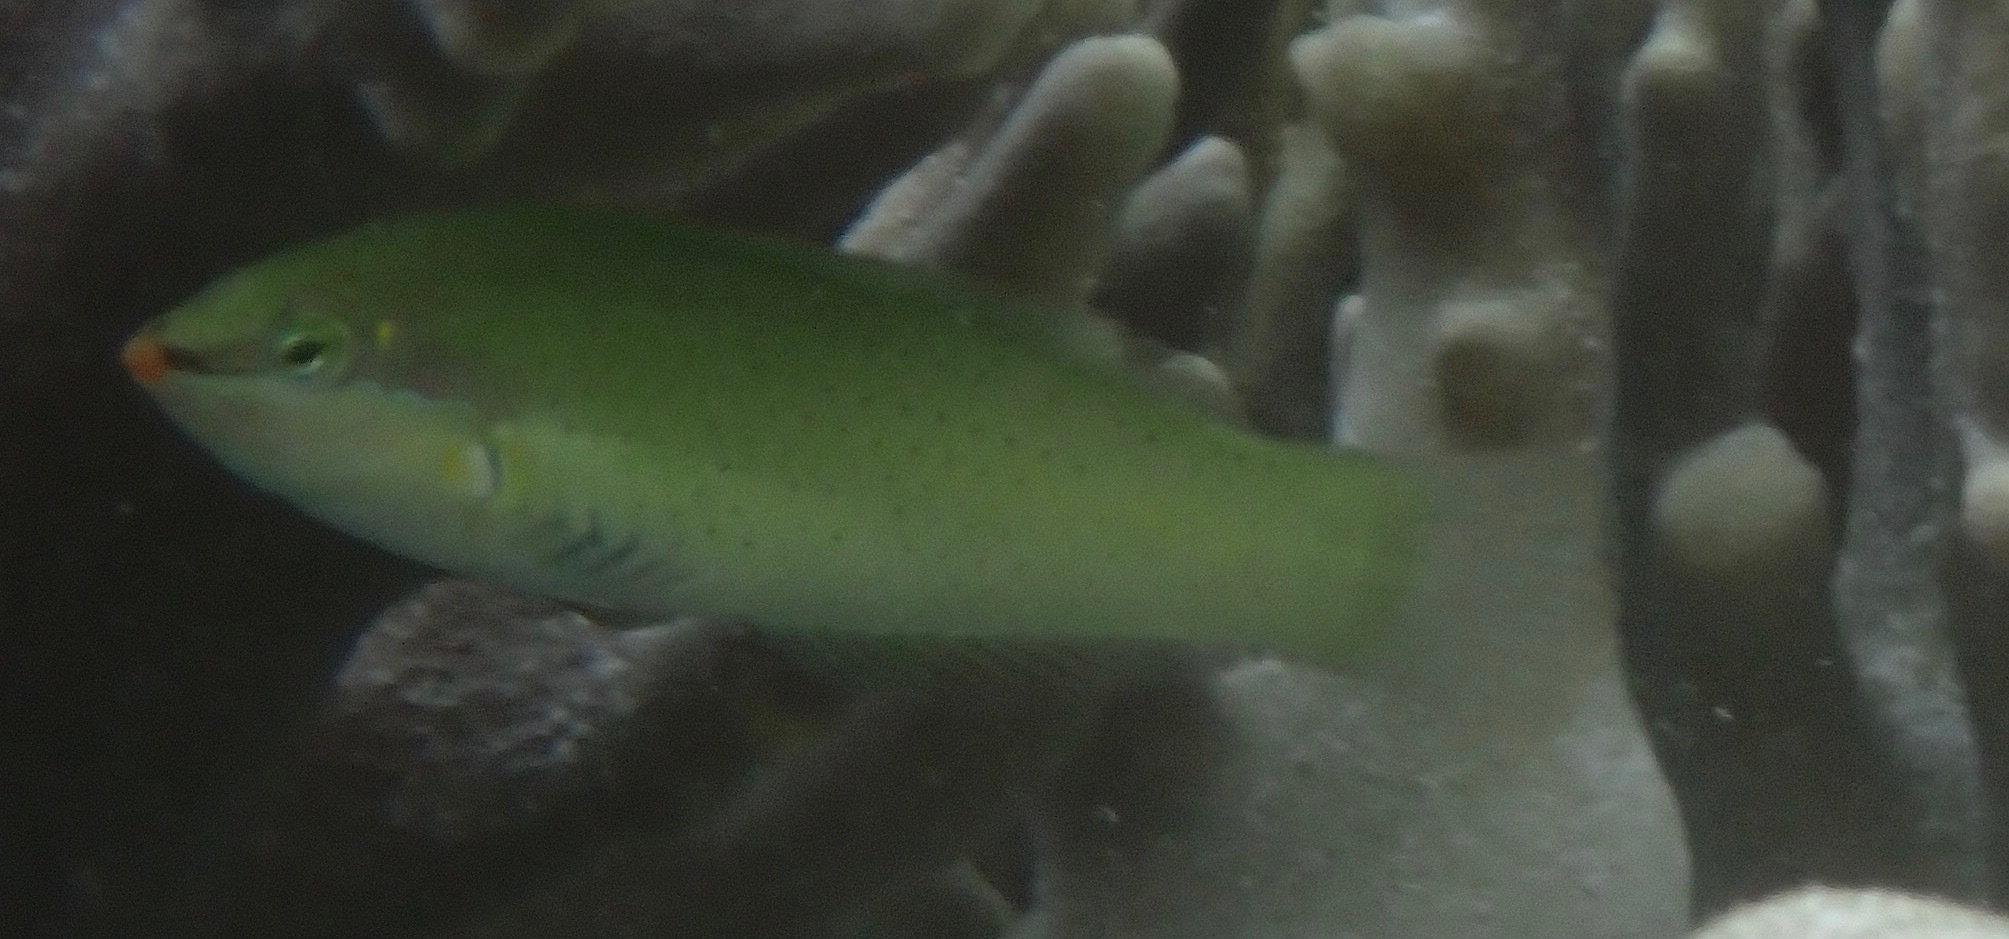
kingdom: Animalia
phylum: Chordata
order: Perciformes
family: Labridae
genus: Halichoeres
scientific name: Halichoeres chloropterus
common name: Pastel-green wrasse
